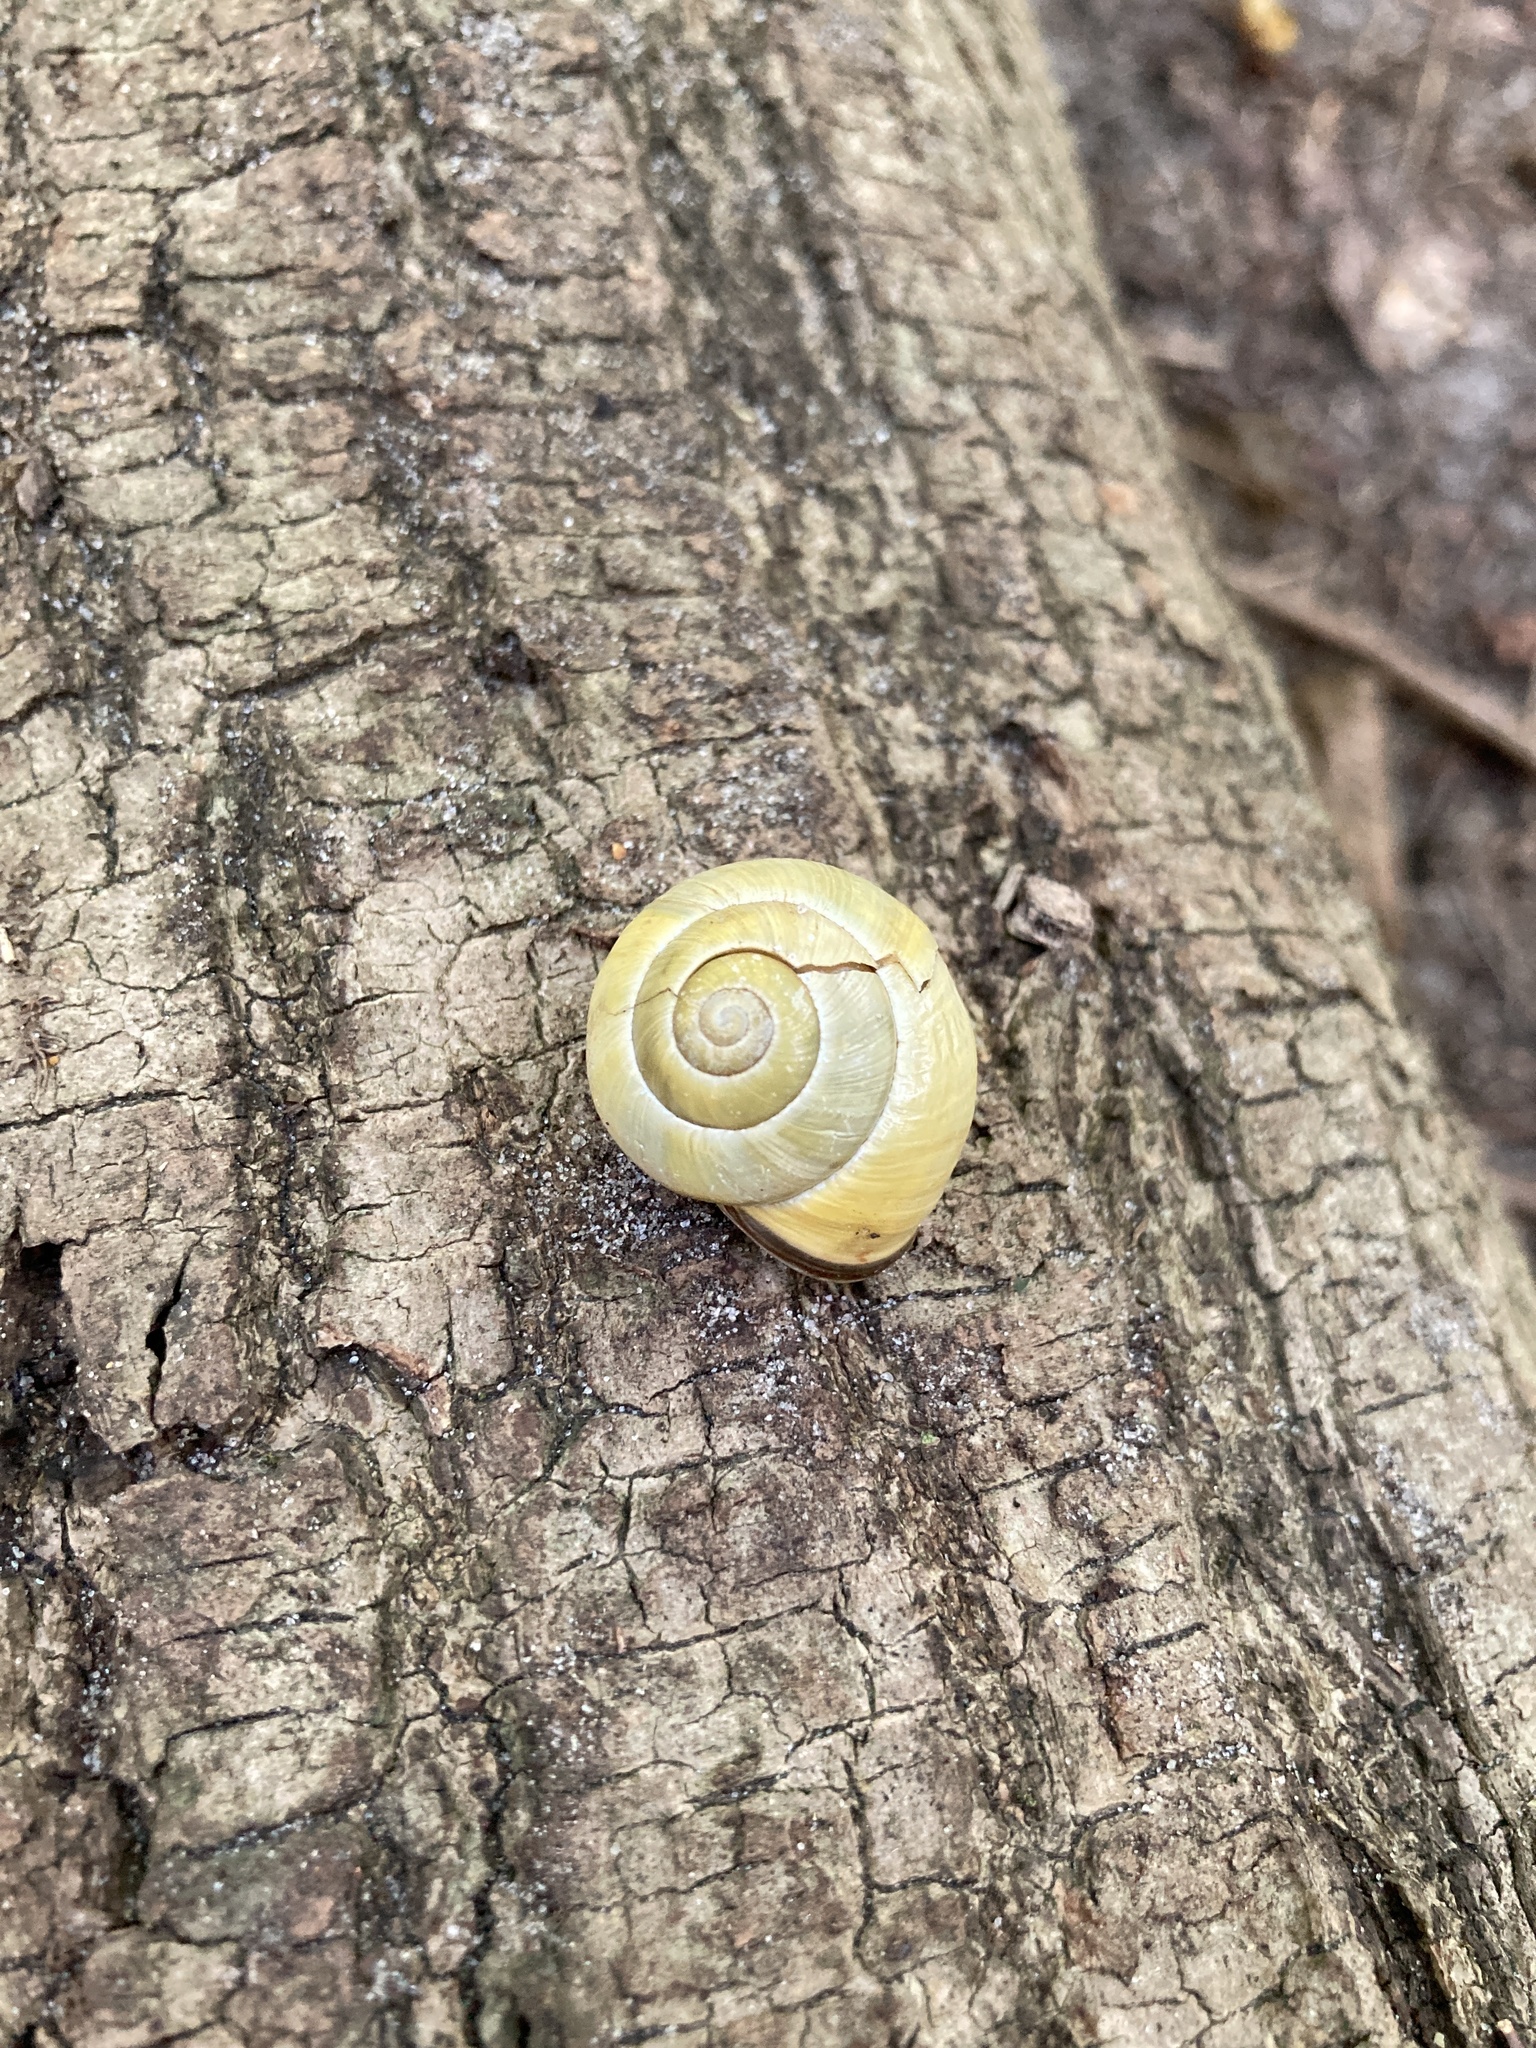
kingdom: Animalia
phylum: Mollusca
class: Gastropoda
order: Stylommatophora
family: Helicidae
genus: Cepaea
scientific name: Cepaea nemoralis
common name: Grovesnail
